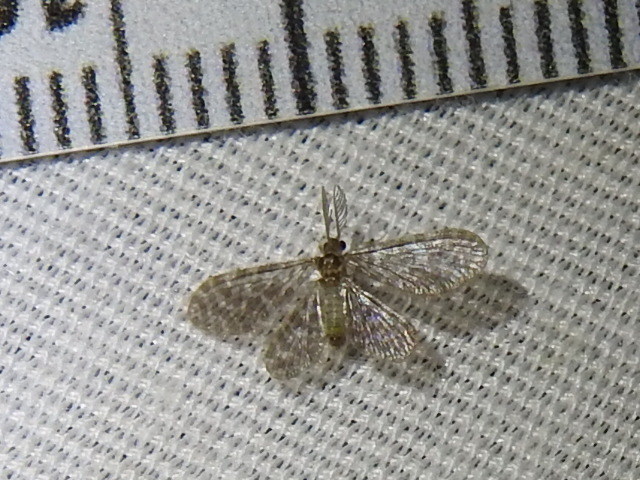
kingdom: Animalia
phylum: Arthropoda
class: Insecta
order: Neuroptera
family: Dilaridae
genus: Nallachius
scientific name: Nallachius americanus
